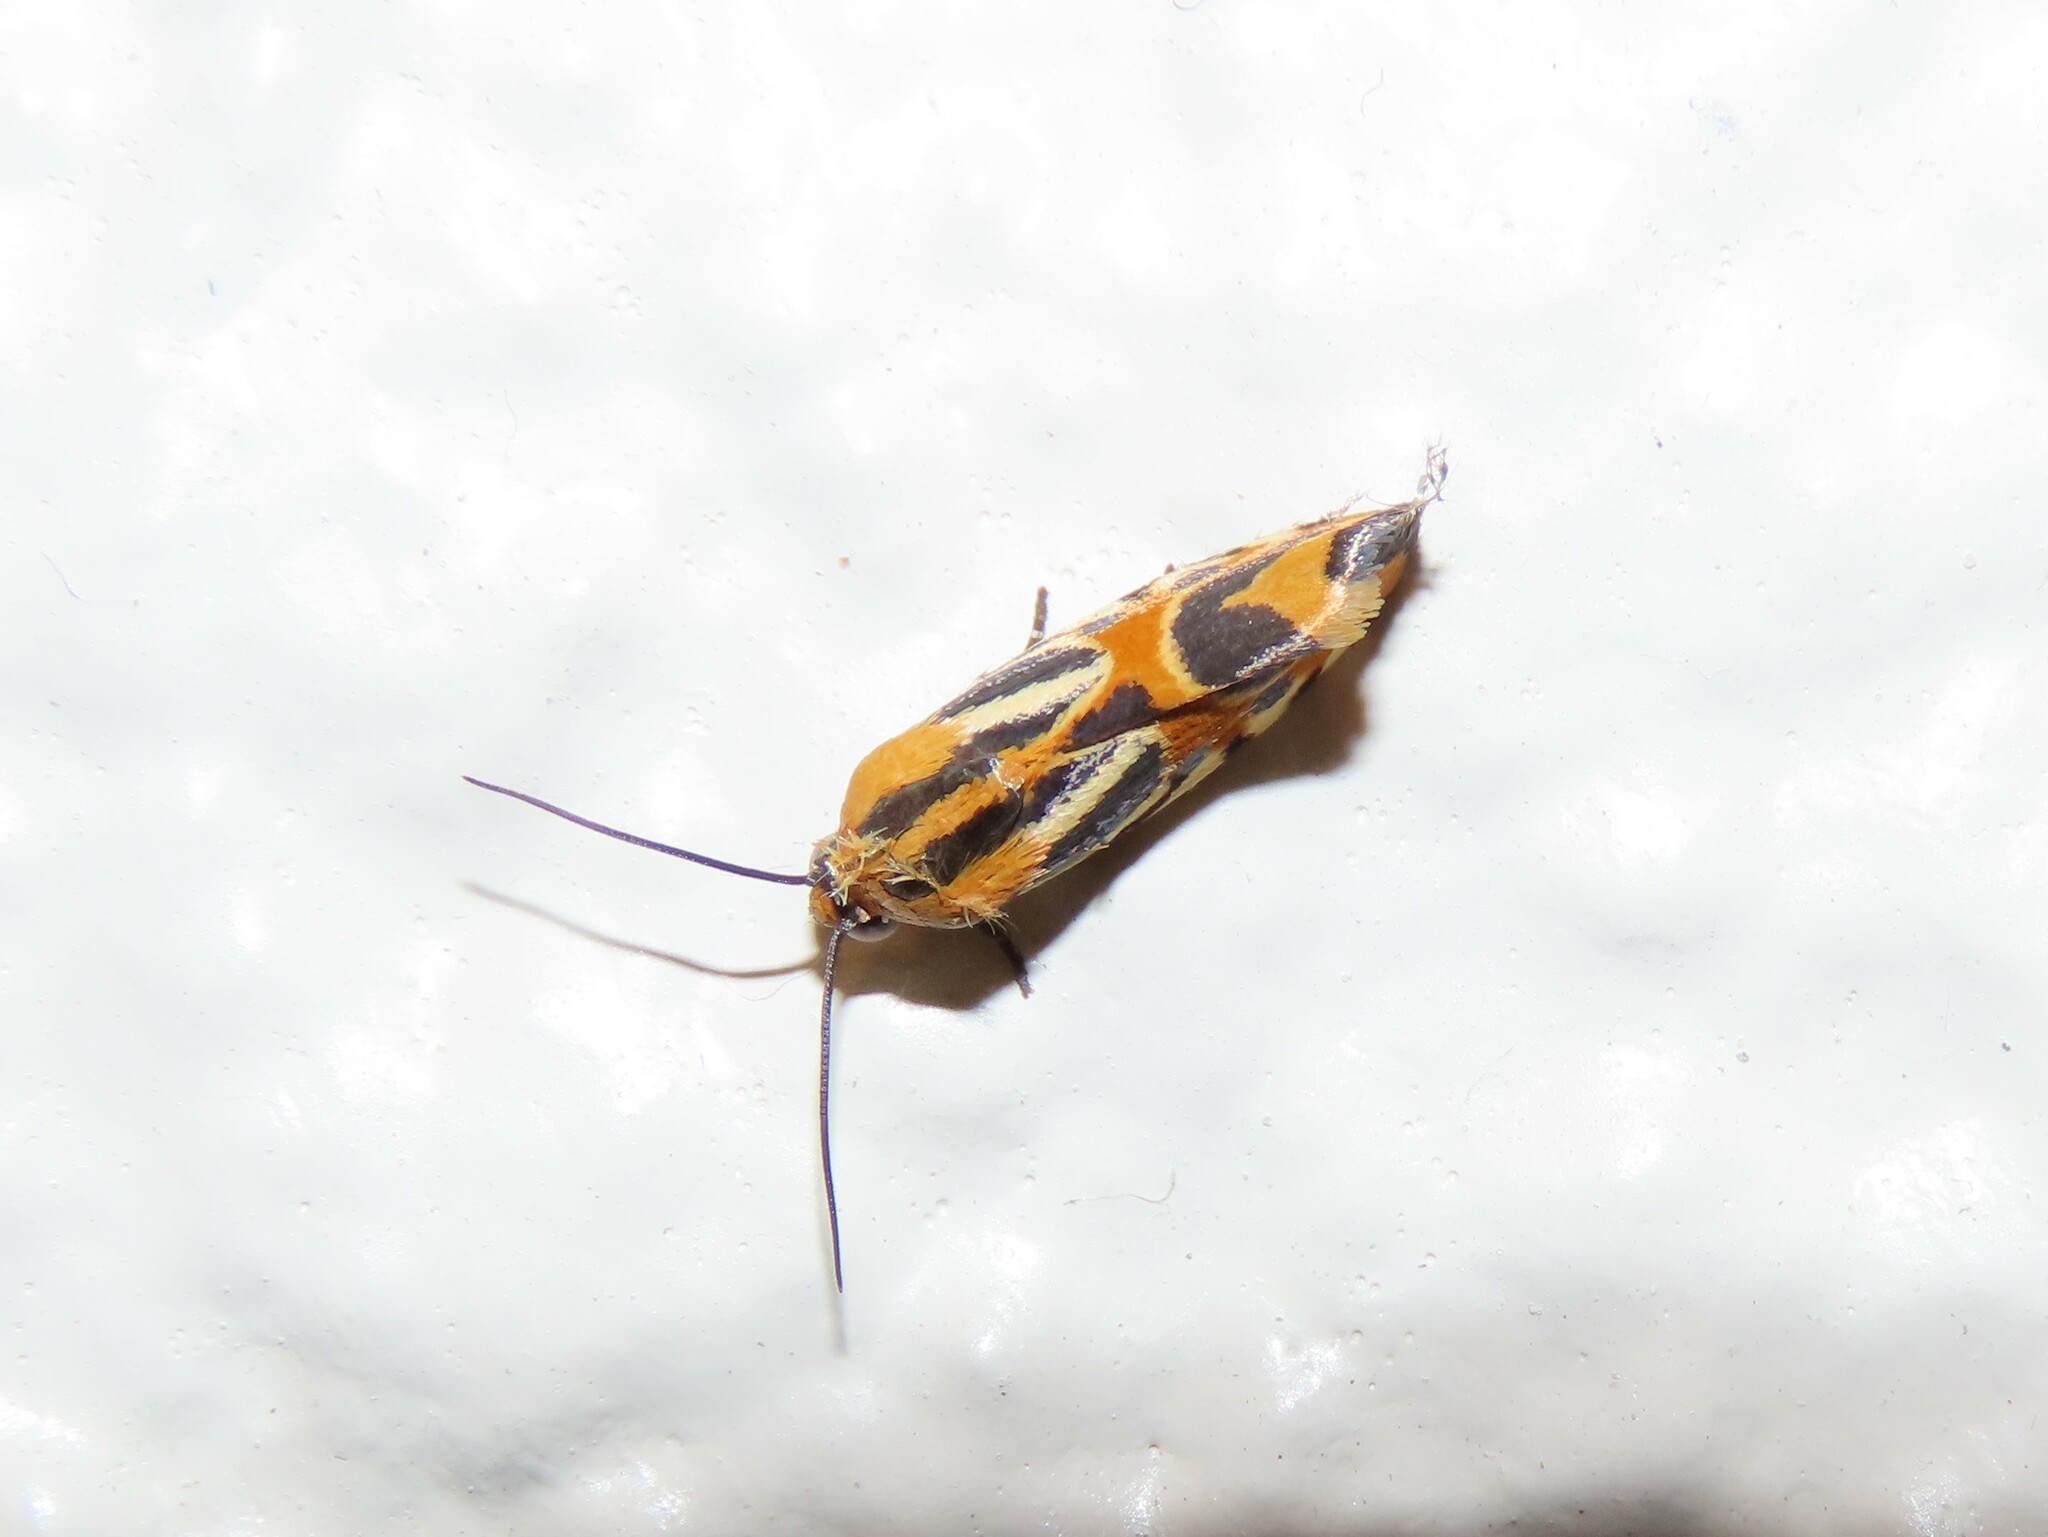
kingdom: Animalia
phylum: Arthropoda
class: Insecta
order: Lepidoptera
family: Noctuidae
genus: Acontia
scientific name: Acontia onagrus
